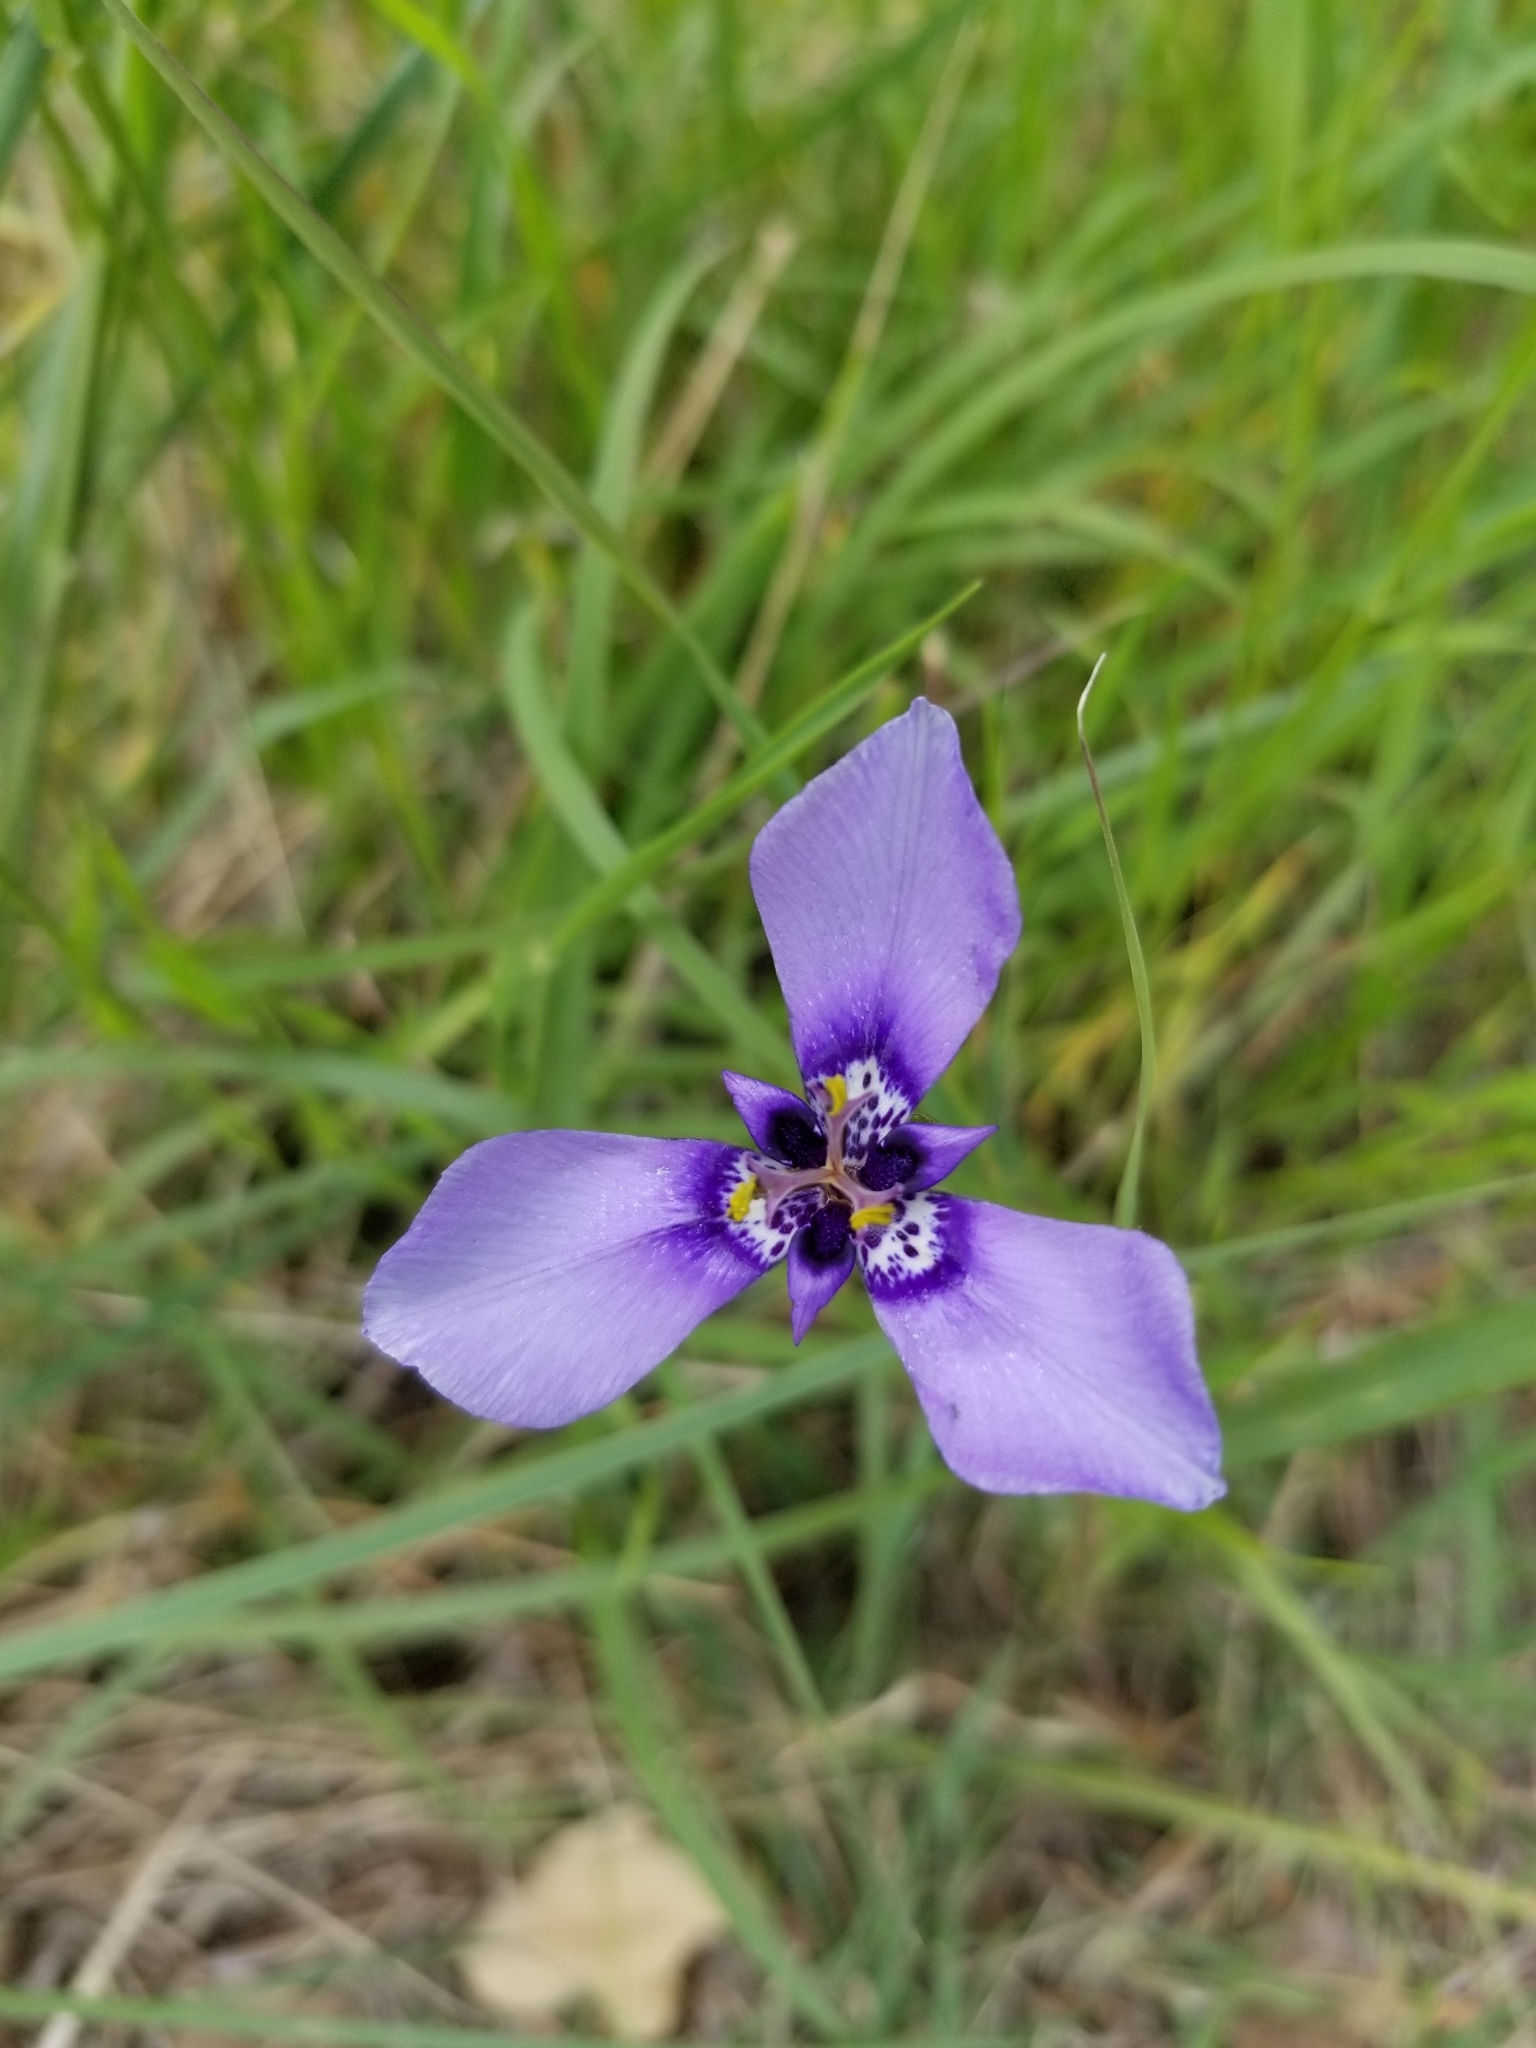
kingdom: Plantae
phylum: Tracheophyta
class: Liliopsida
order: Asparagales
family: Iridaceae
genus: Herbertia
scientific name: Herbertia lahue
